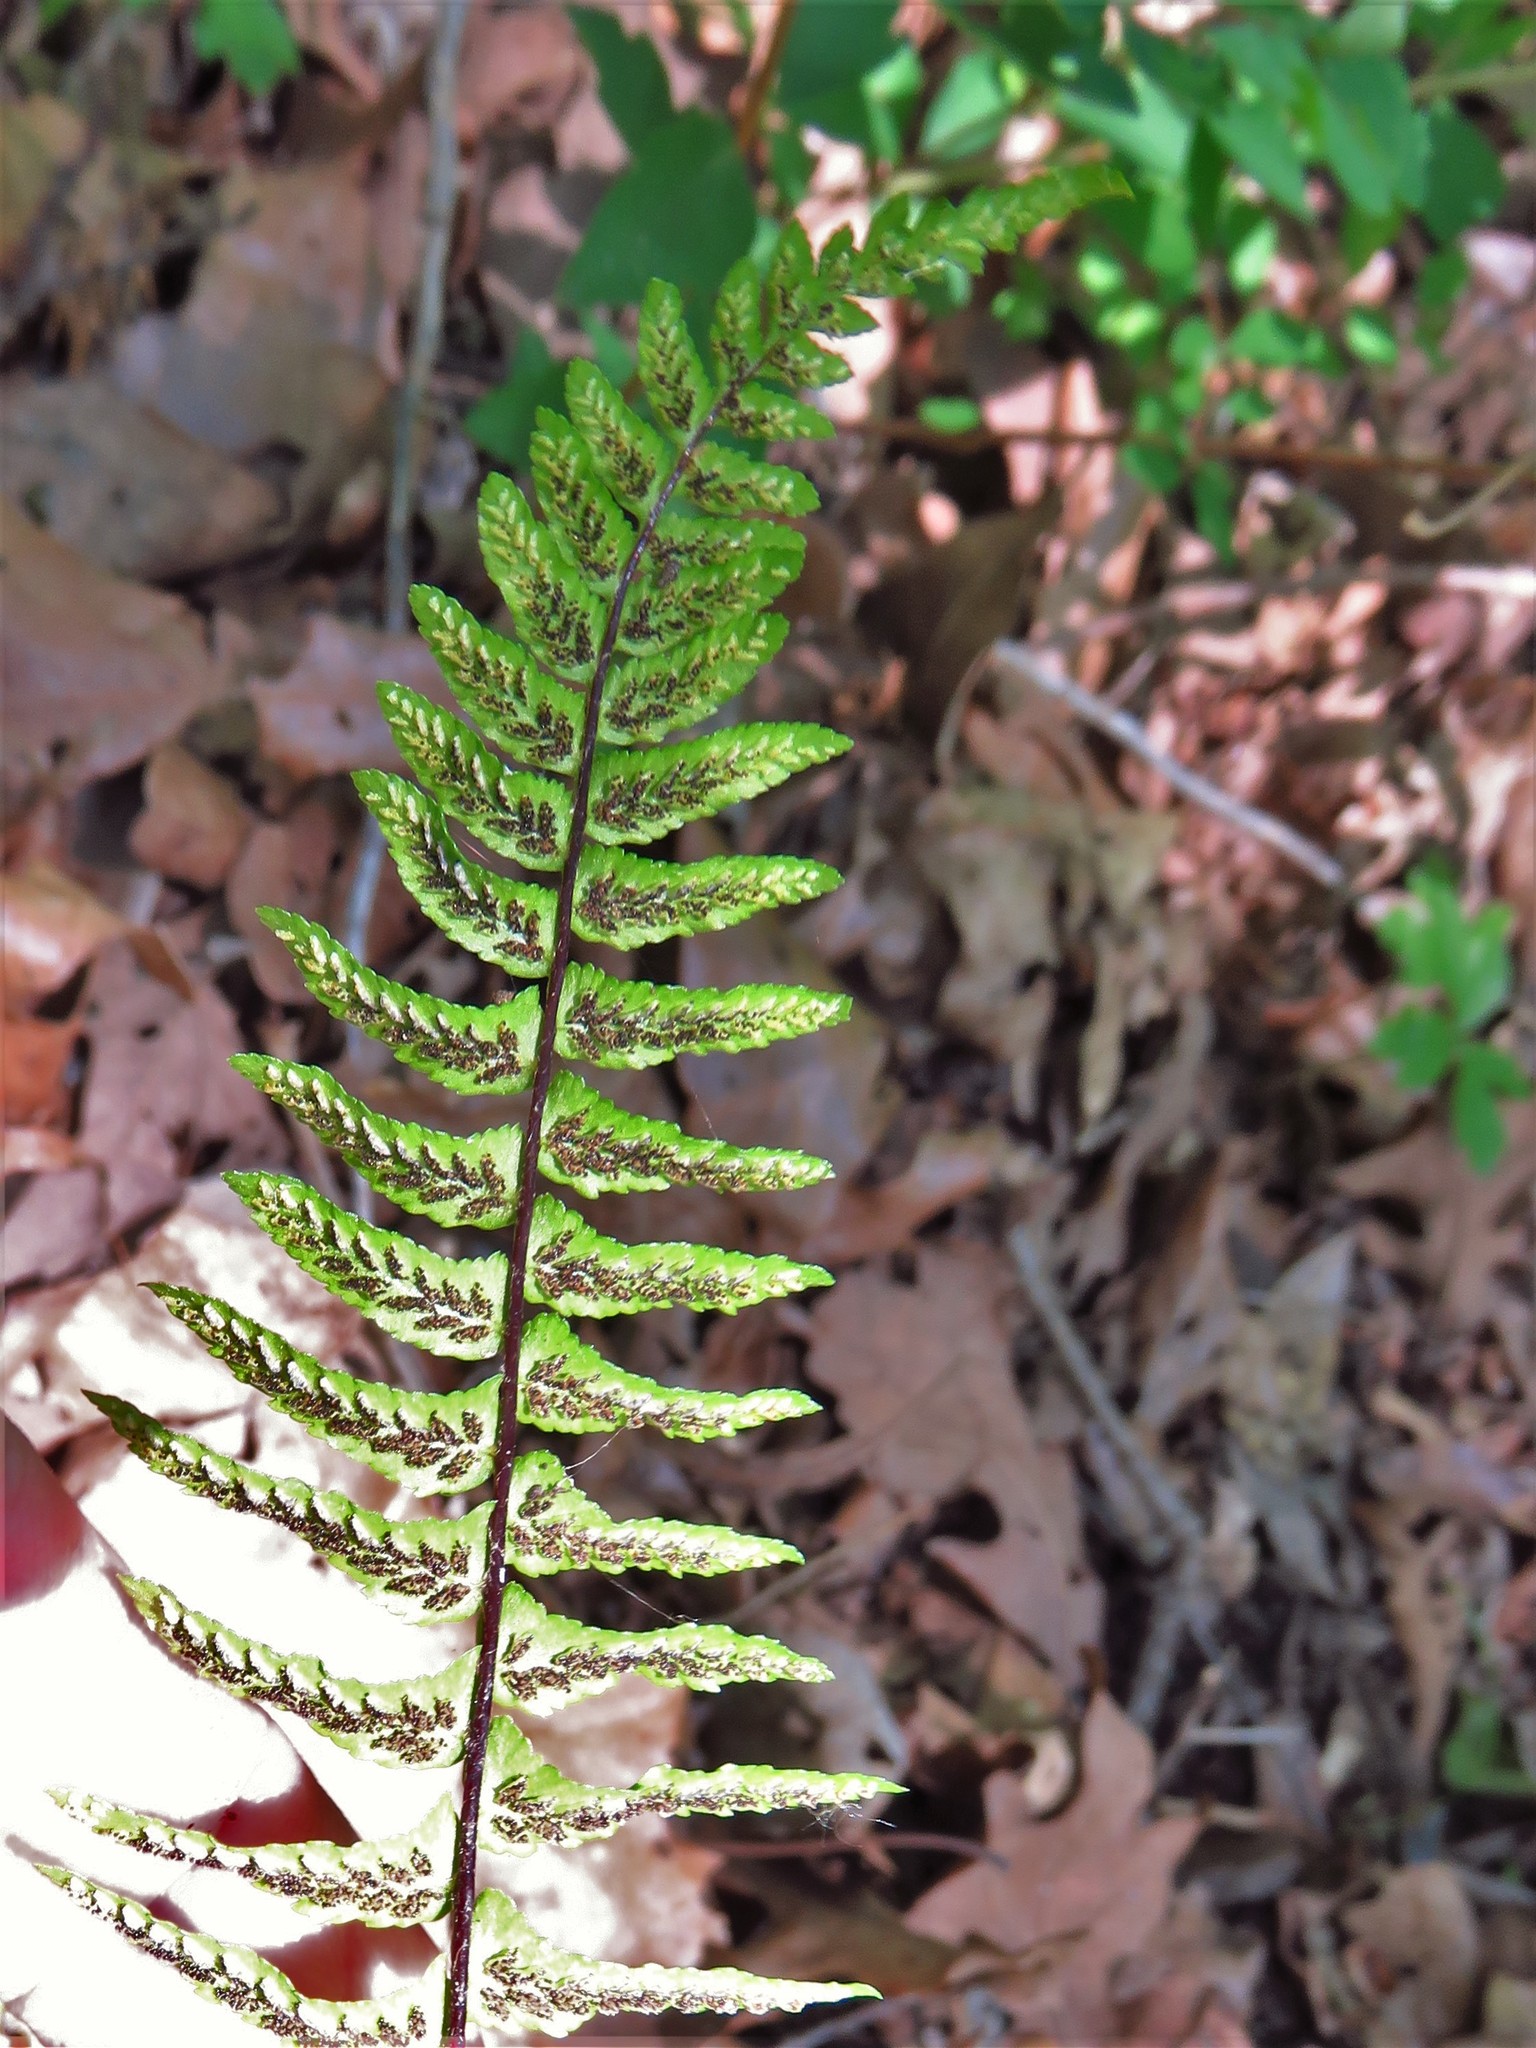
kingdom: Plantae
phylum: Tracheophyta
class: Polypodiopsida
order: Polypodiales
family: Aspleniaceae
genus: Asplenium
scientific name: Asplenium platyneuron
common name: Ebony spleenwort
